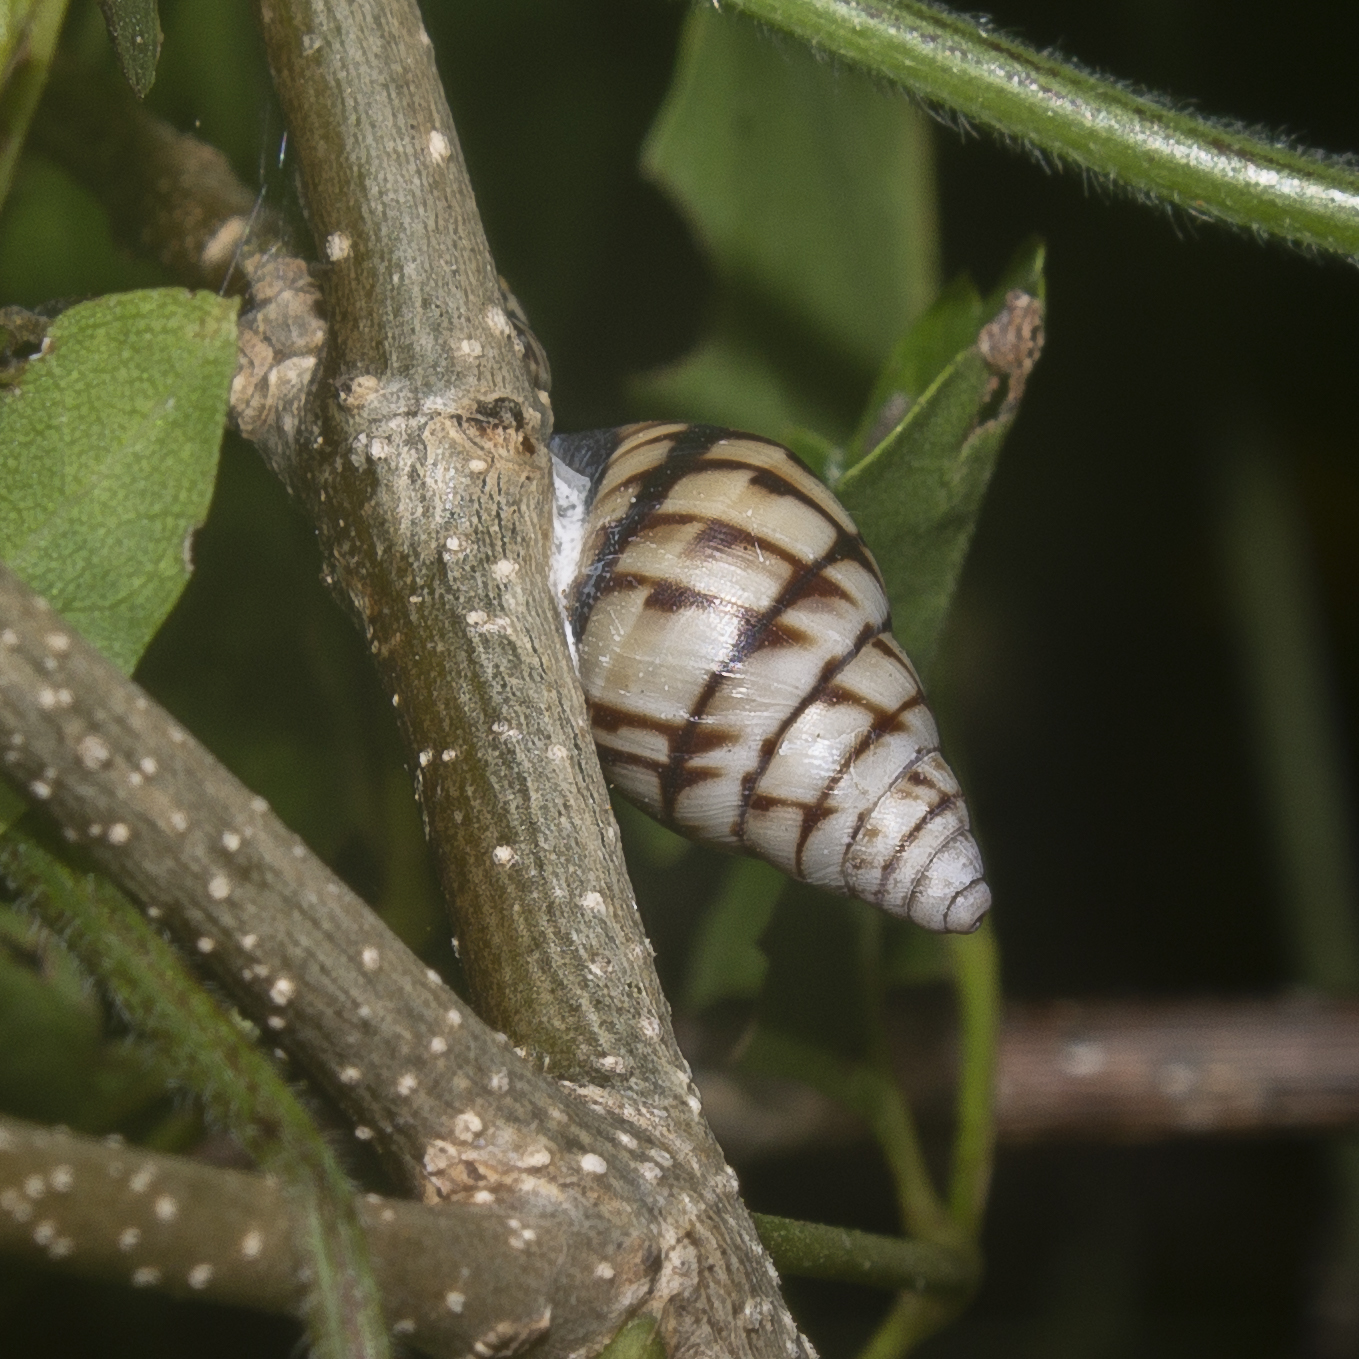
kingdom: Animalia
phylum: Mollusca
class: Gastropoda
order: Stylommatophora
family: Bulimulidae
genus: Drymaeus
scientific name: Drymaeus
